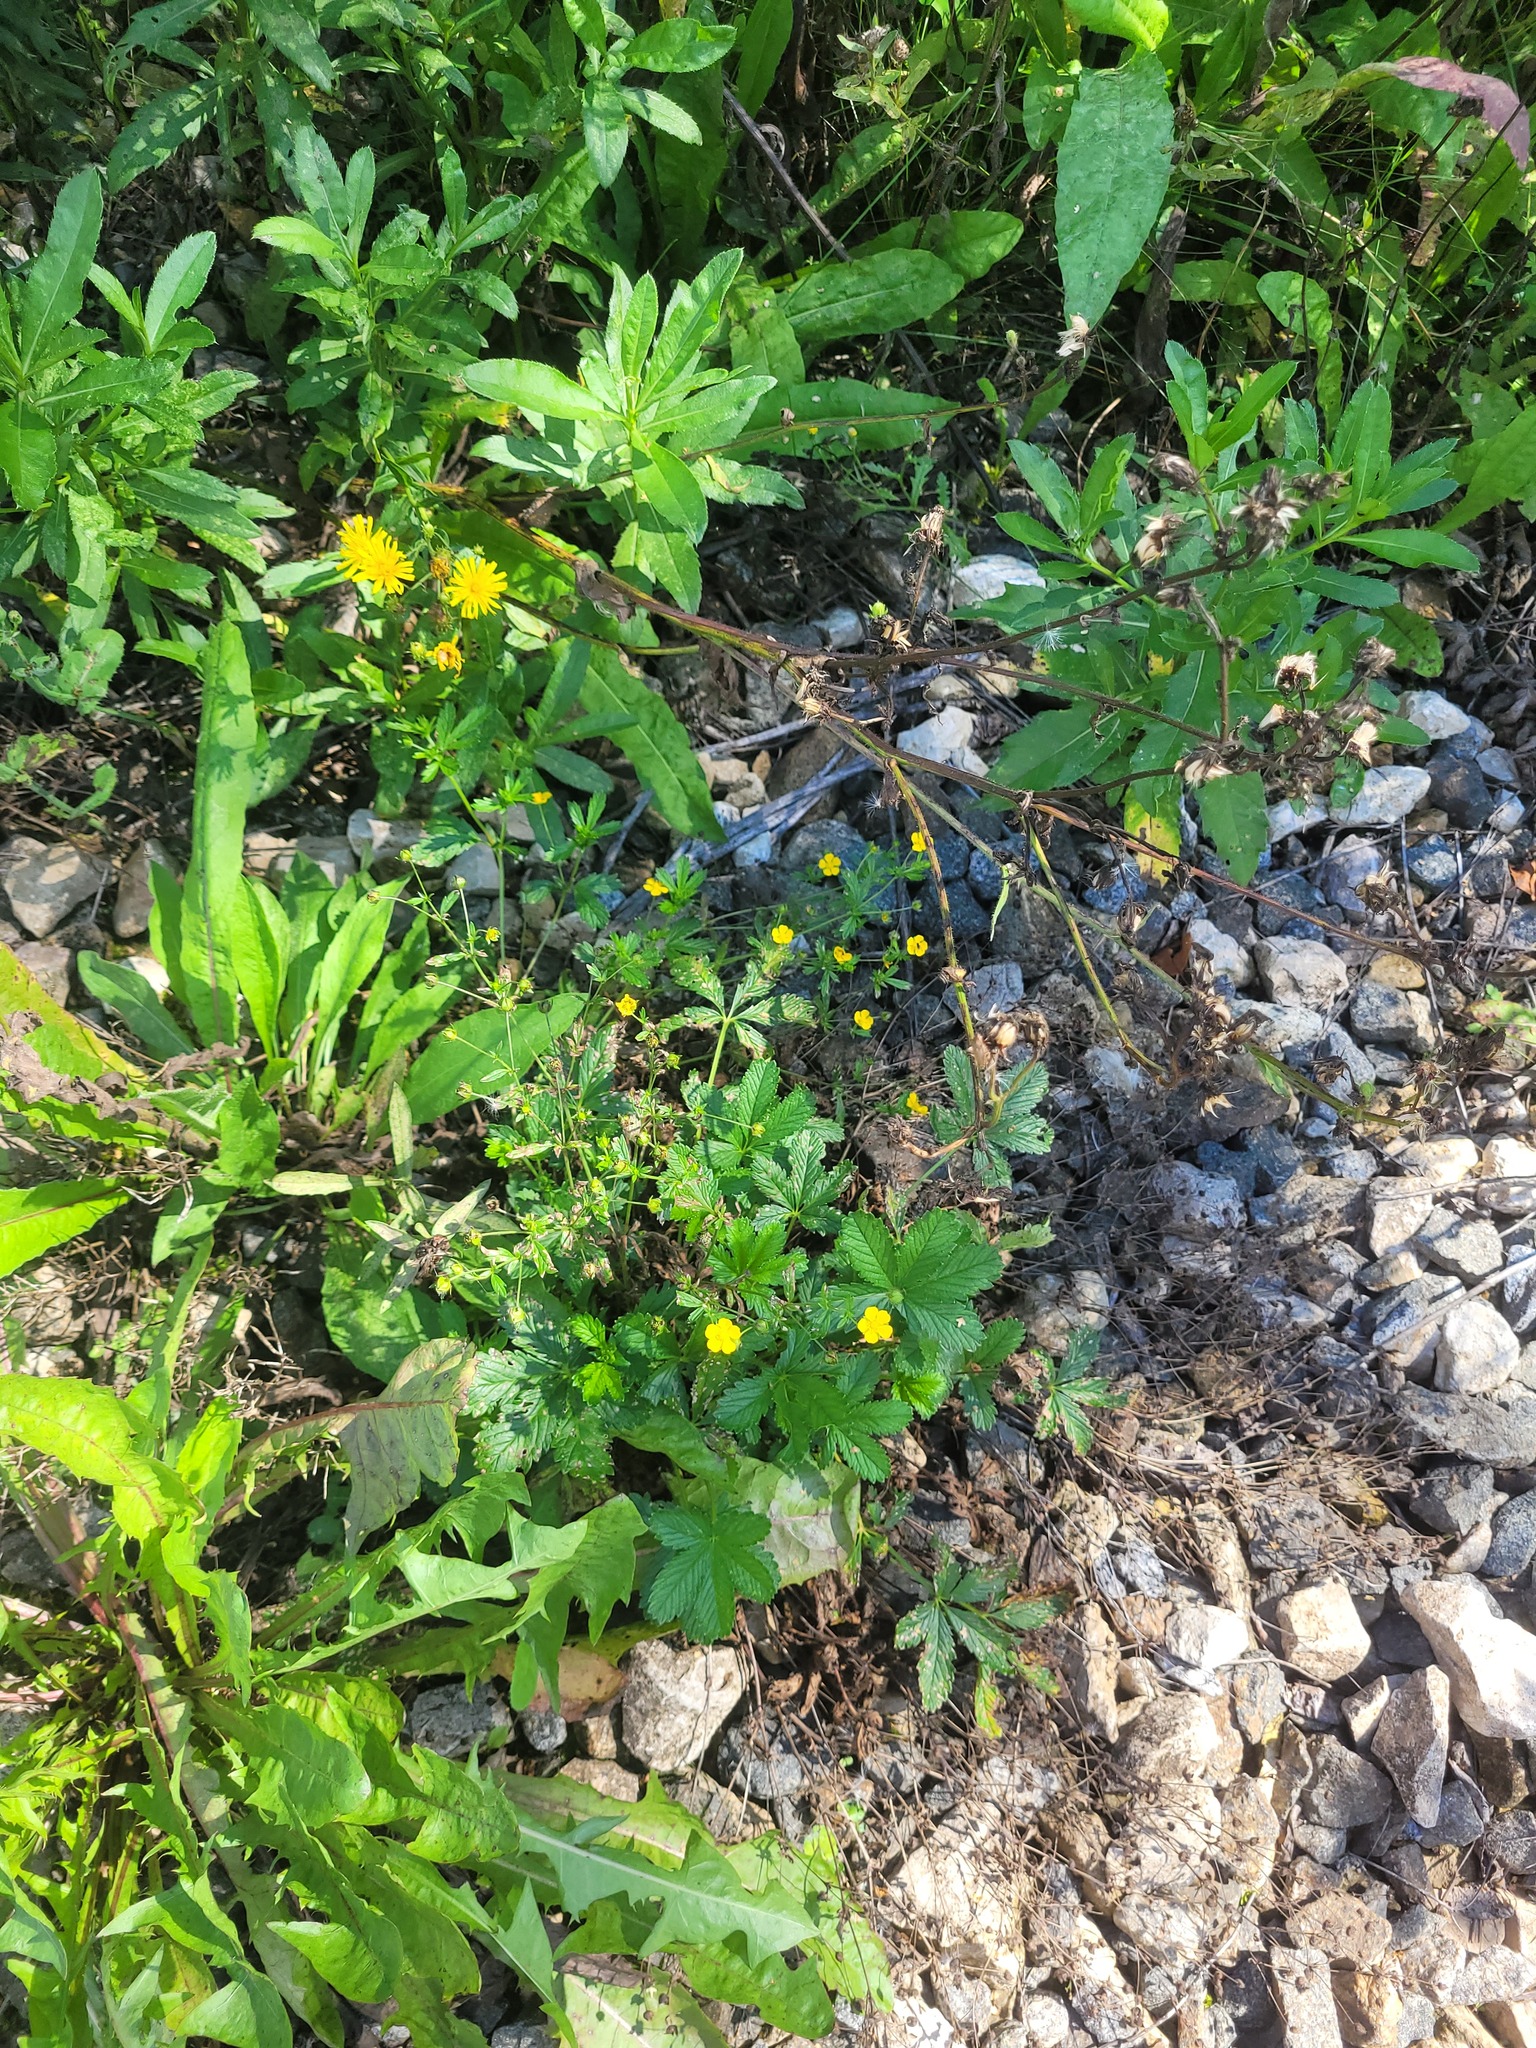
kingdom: Plantae
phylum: Tracheophyta
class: Magnoliopsida
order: Rosales
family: Rosaceae
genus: Potentilla
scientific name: Potentilla thuringiaca
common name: European cinquefoil
